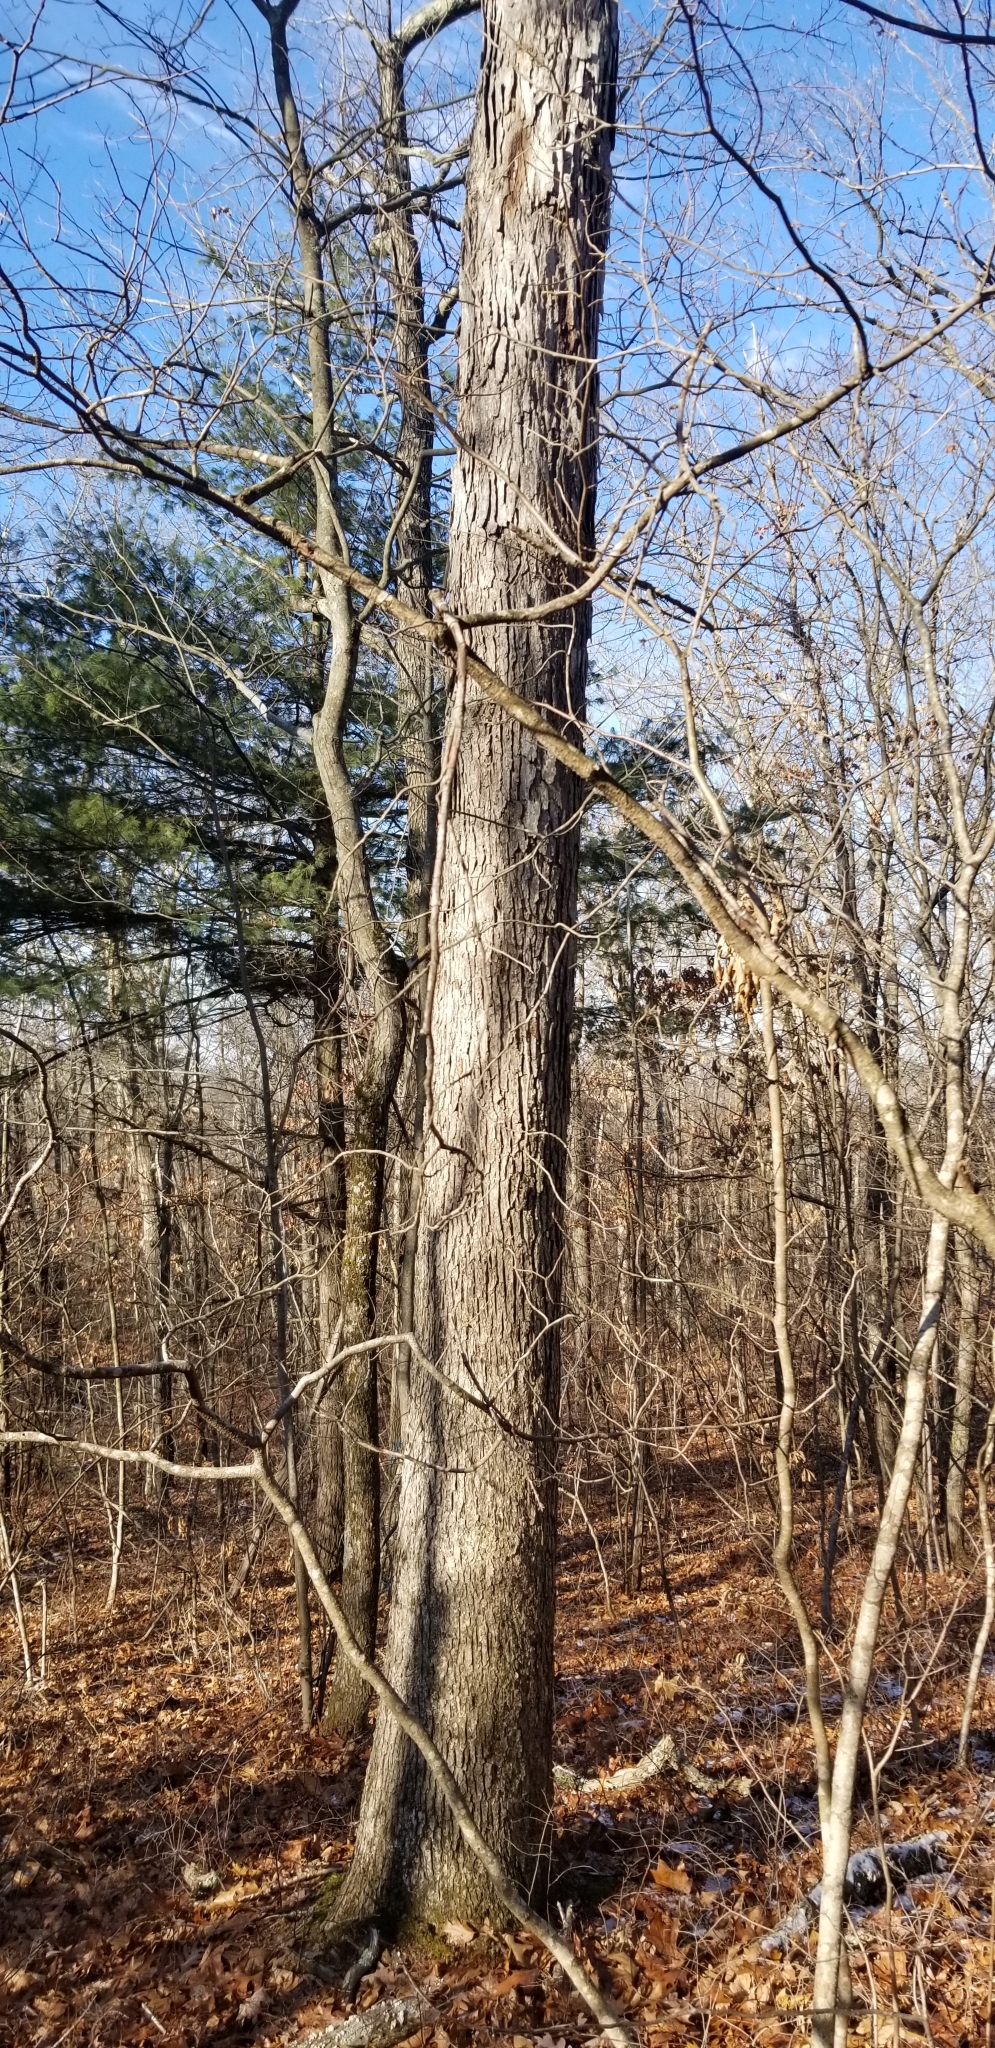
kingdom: Plantae
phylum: Tracheophyta
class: Magnoliopsida
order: Fagales
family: Fagaceae
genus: Quercus
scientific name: Quercus alba
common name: White oak
